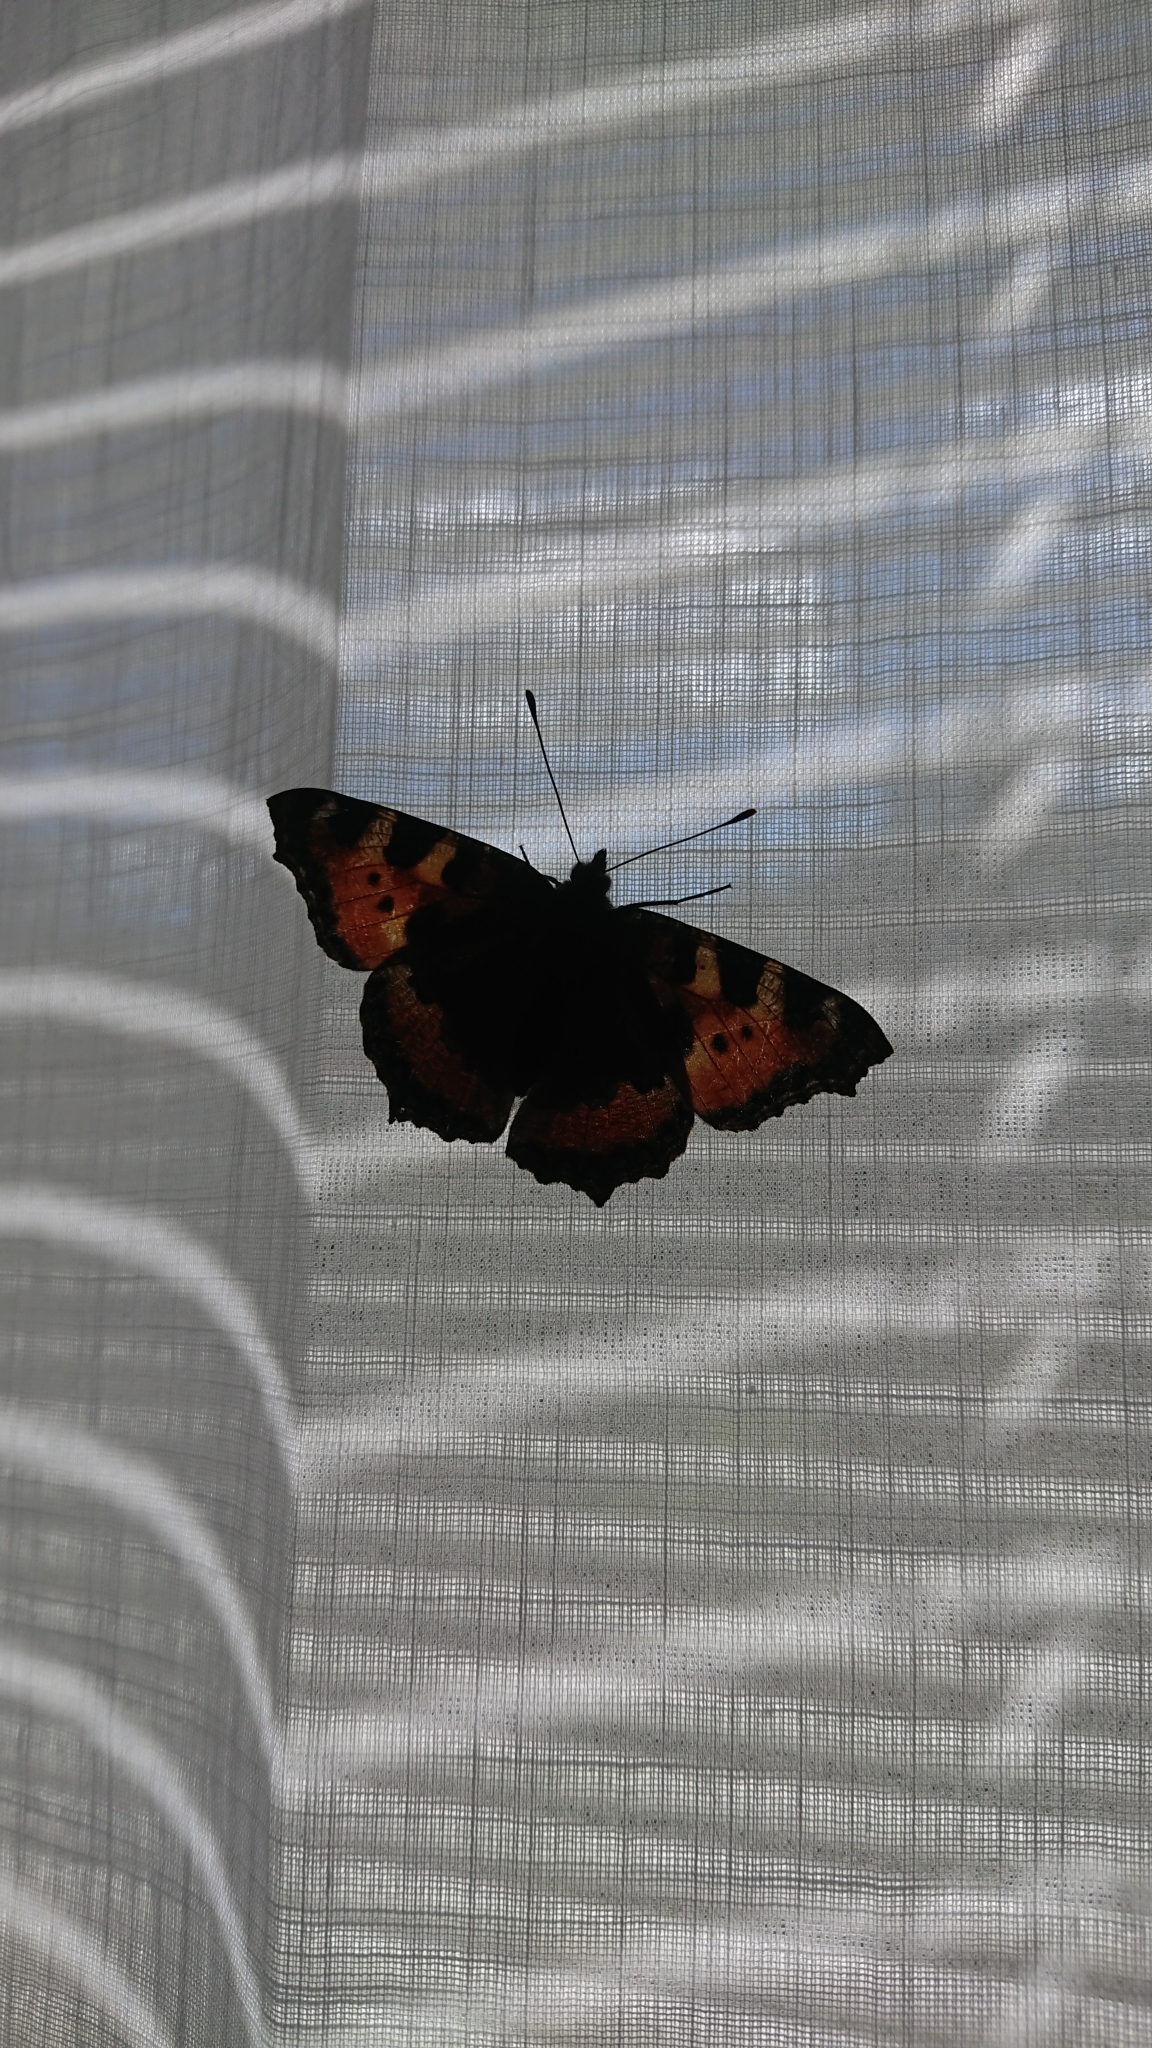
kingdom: Animalia
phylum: Arthropoda
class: Insecta
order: Lepidoptera
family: Nymphalidae
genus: Aglais
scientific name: Aglais urticae
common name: Small tortoiseshell
